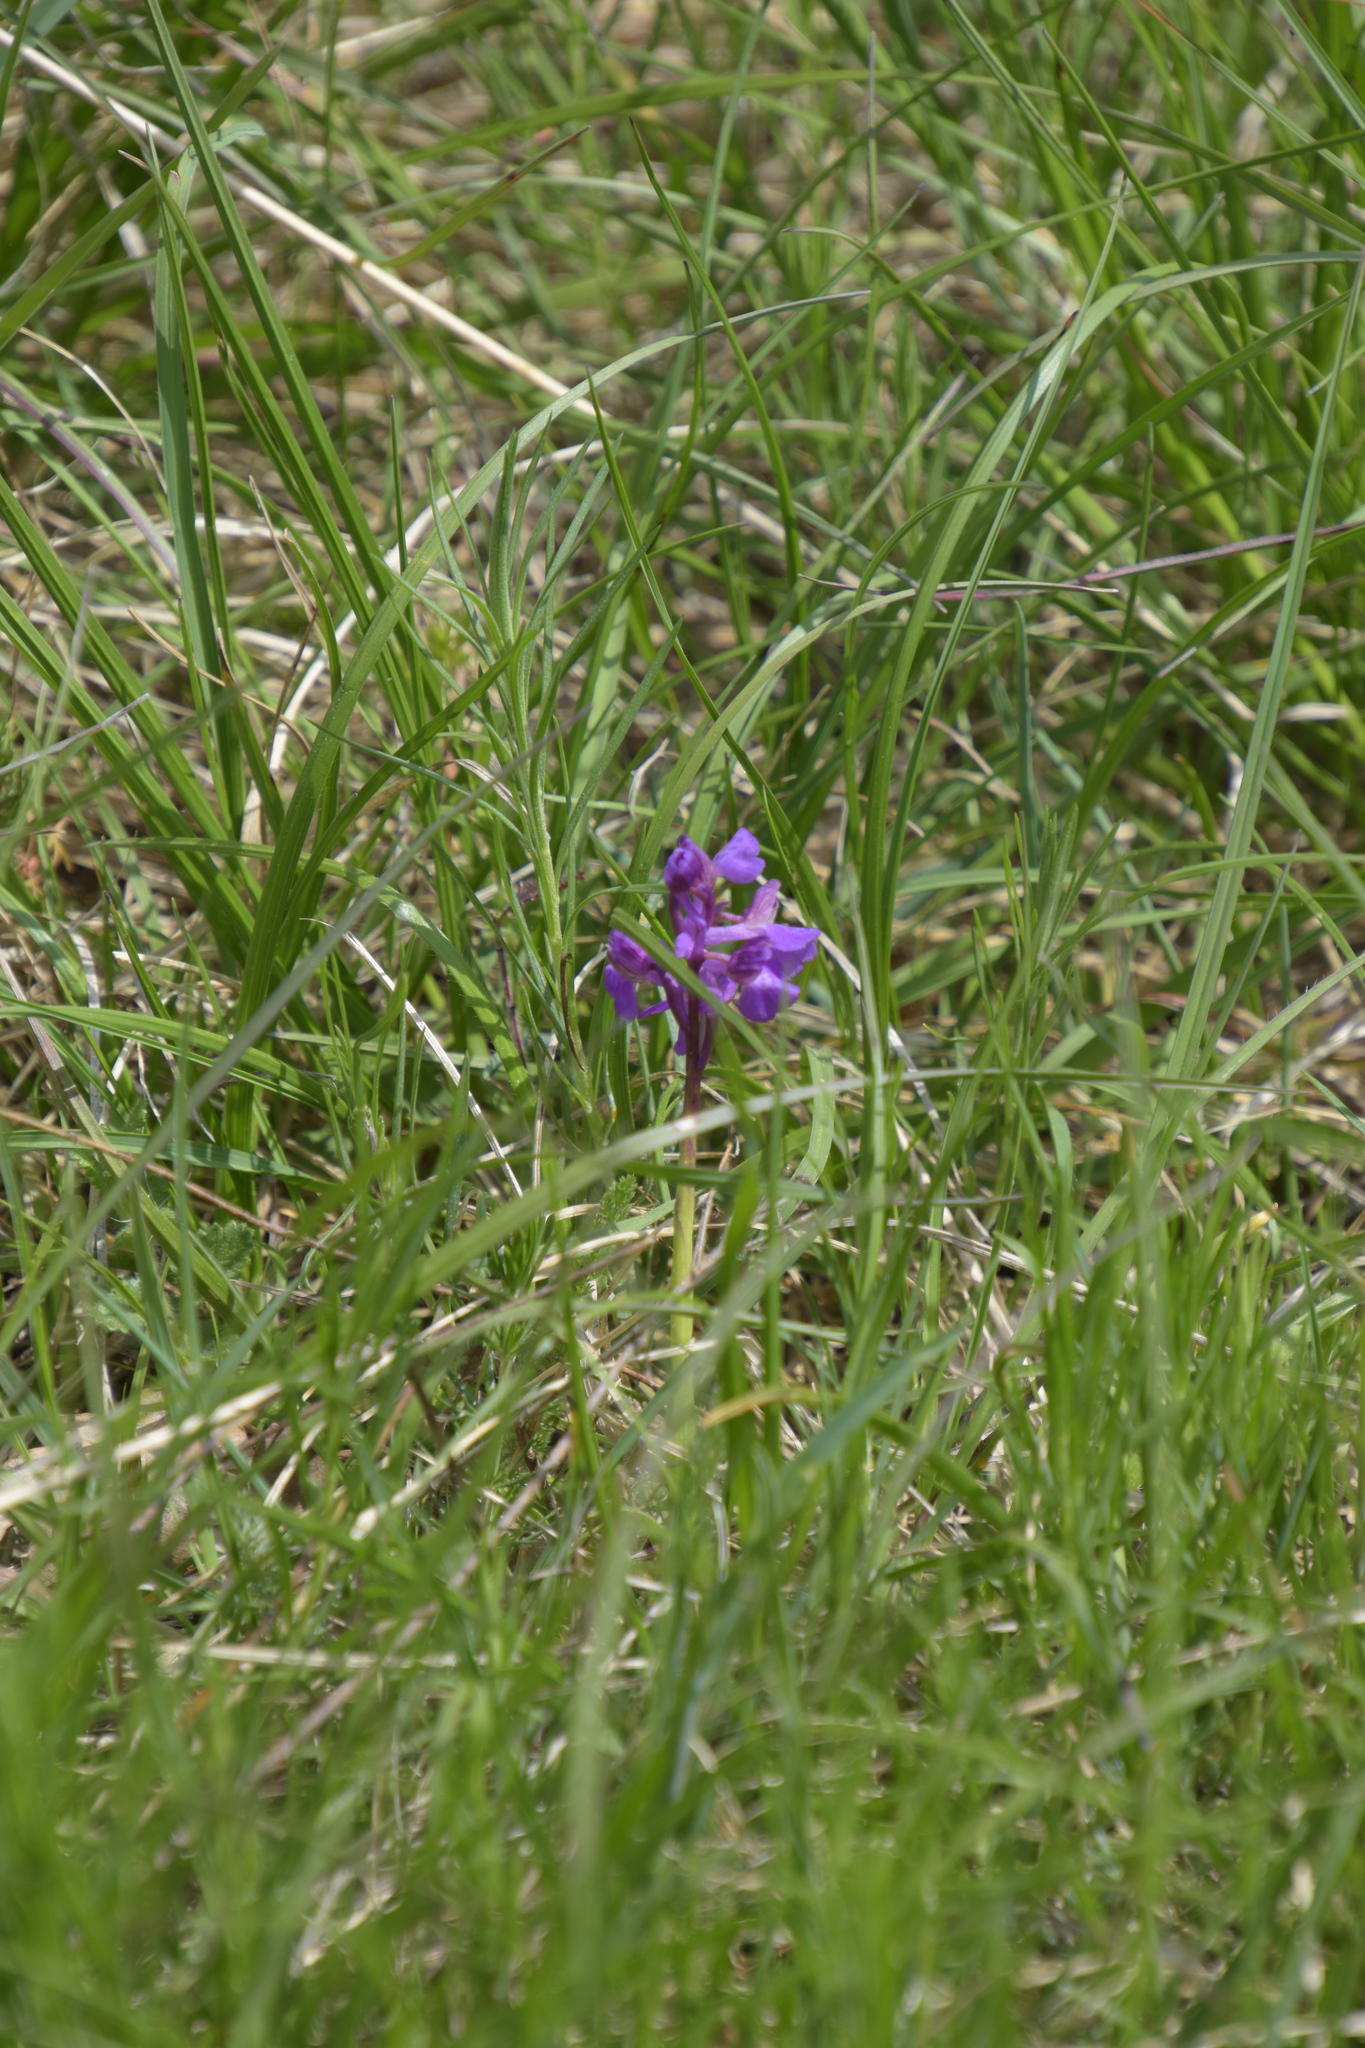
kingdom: Plantae
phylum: Tracheophyta
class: Liliopsida
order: Asparagales
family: Orchidaceae
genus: Anacamptis
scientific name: Anacamptis morio
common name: Green-winged orchid
